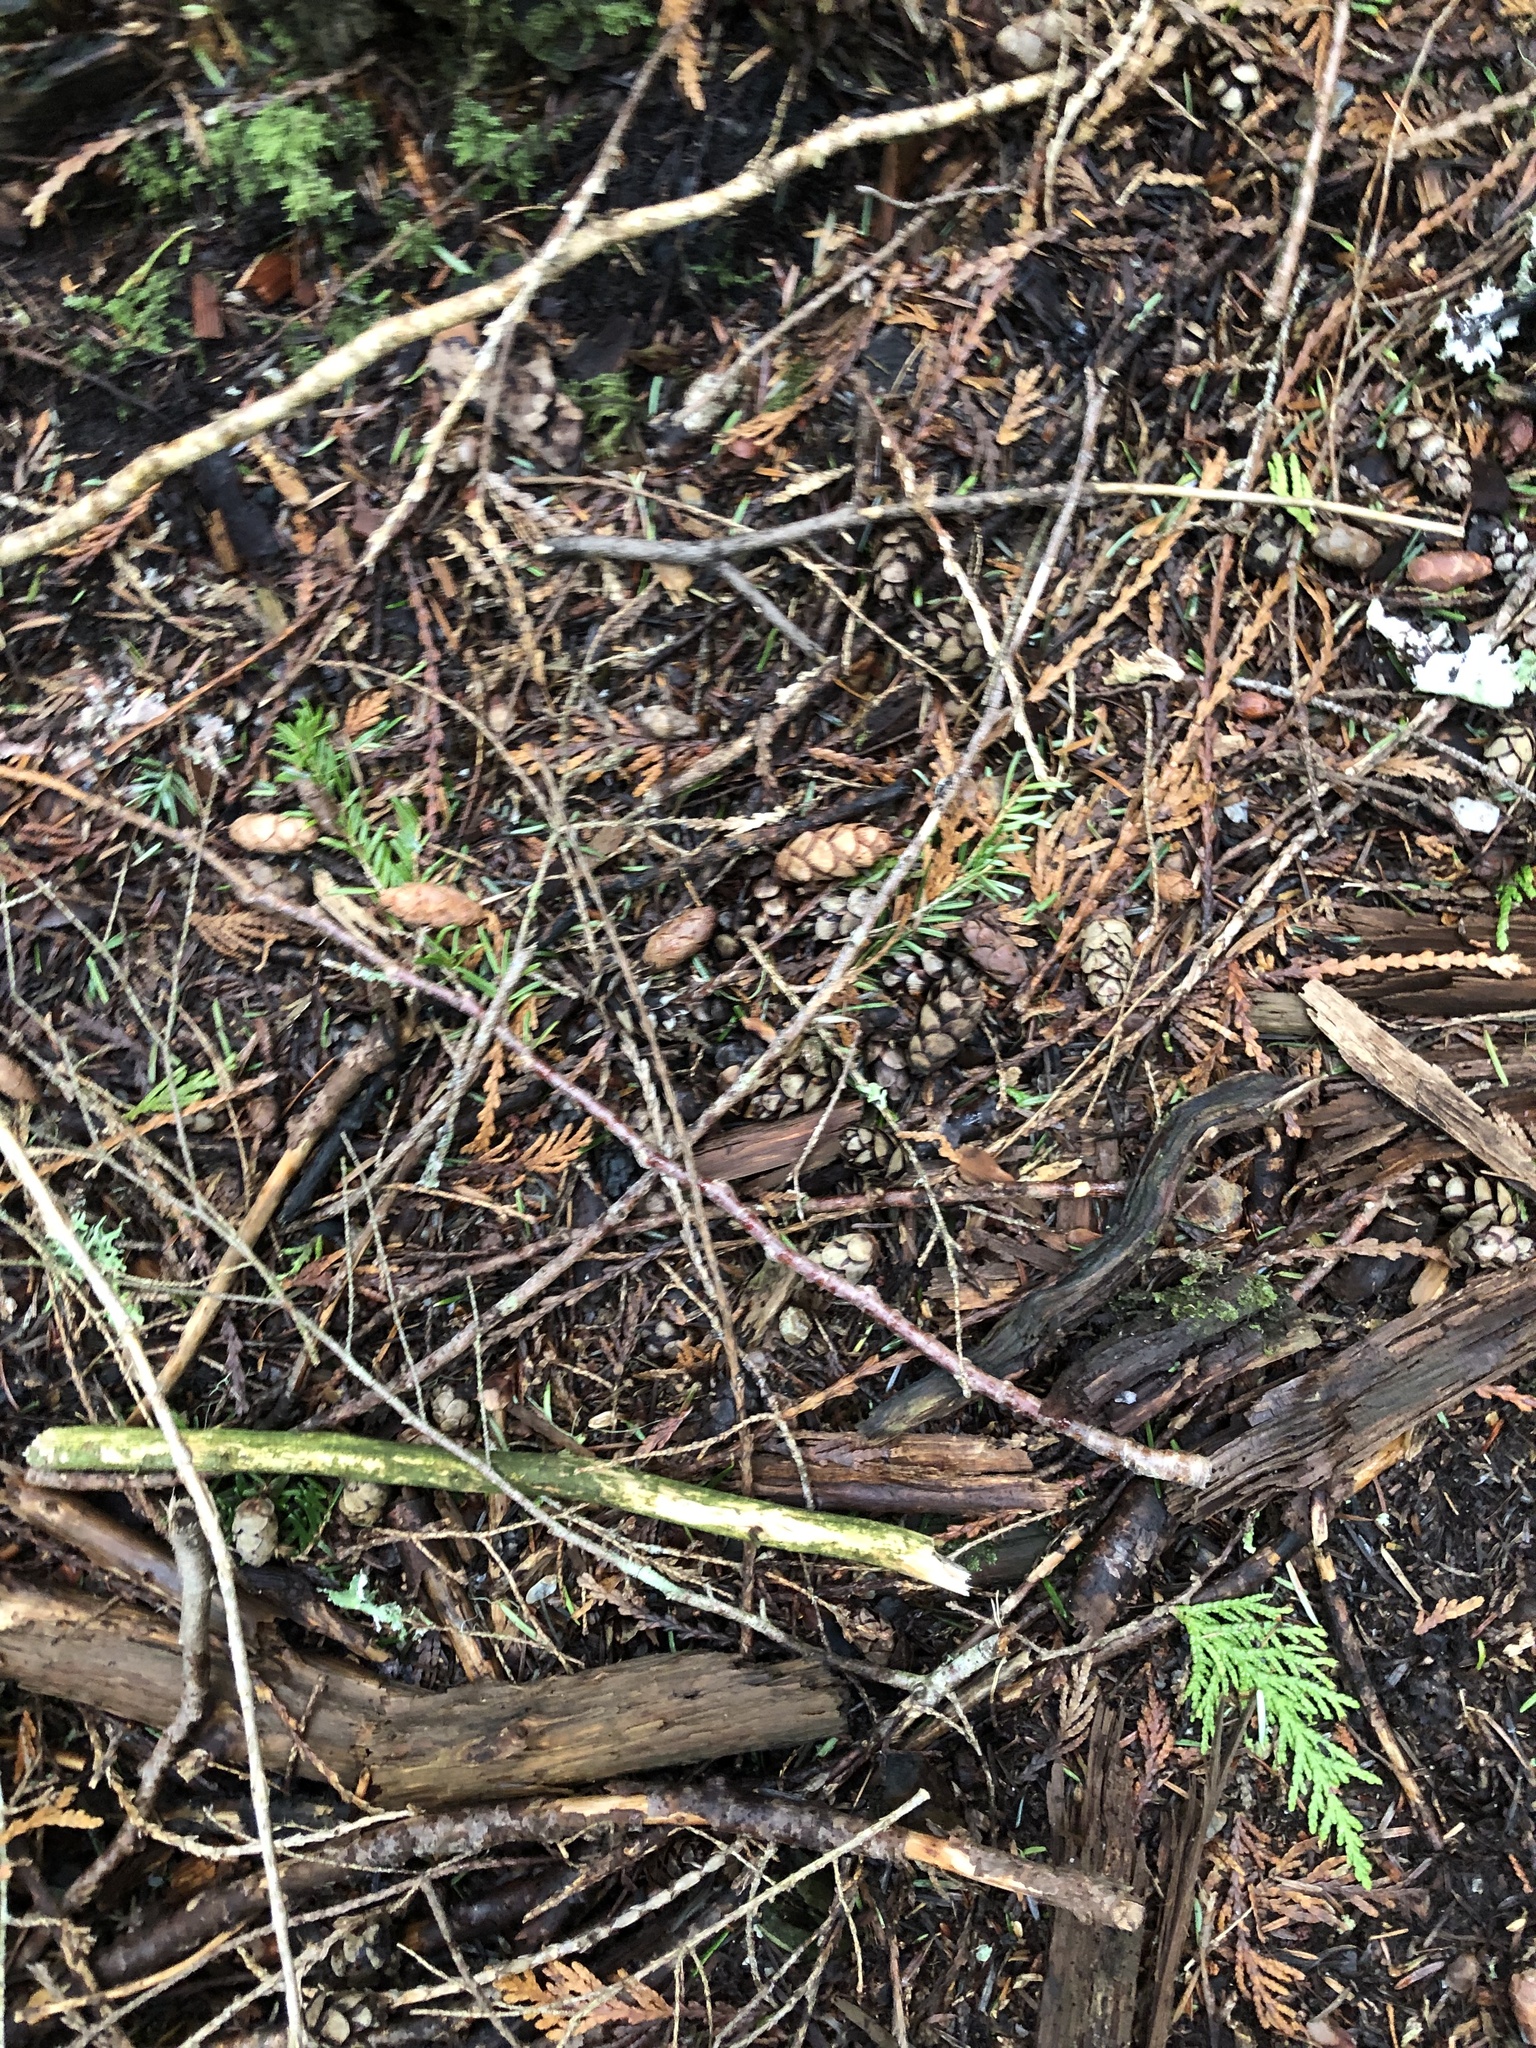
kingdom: Plantae
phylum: Tracheophyta
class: Pinopsida
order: Pinales
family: Pinaceae
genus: Tsuga
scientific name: Tsuga heterophylla
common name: Western hemlock
